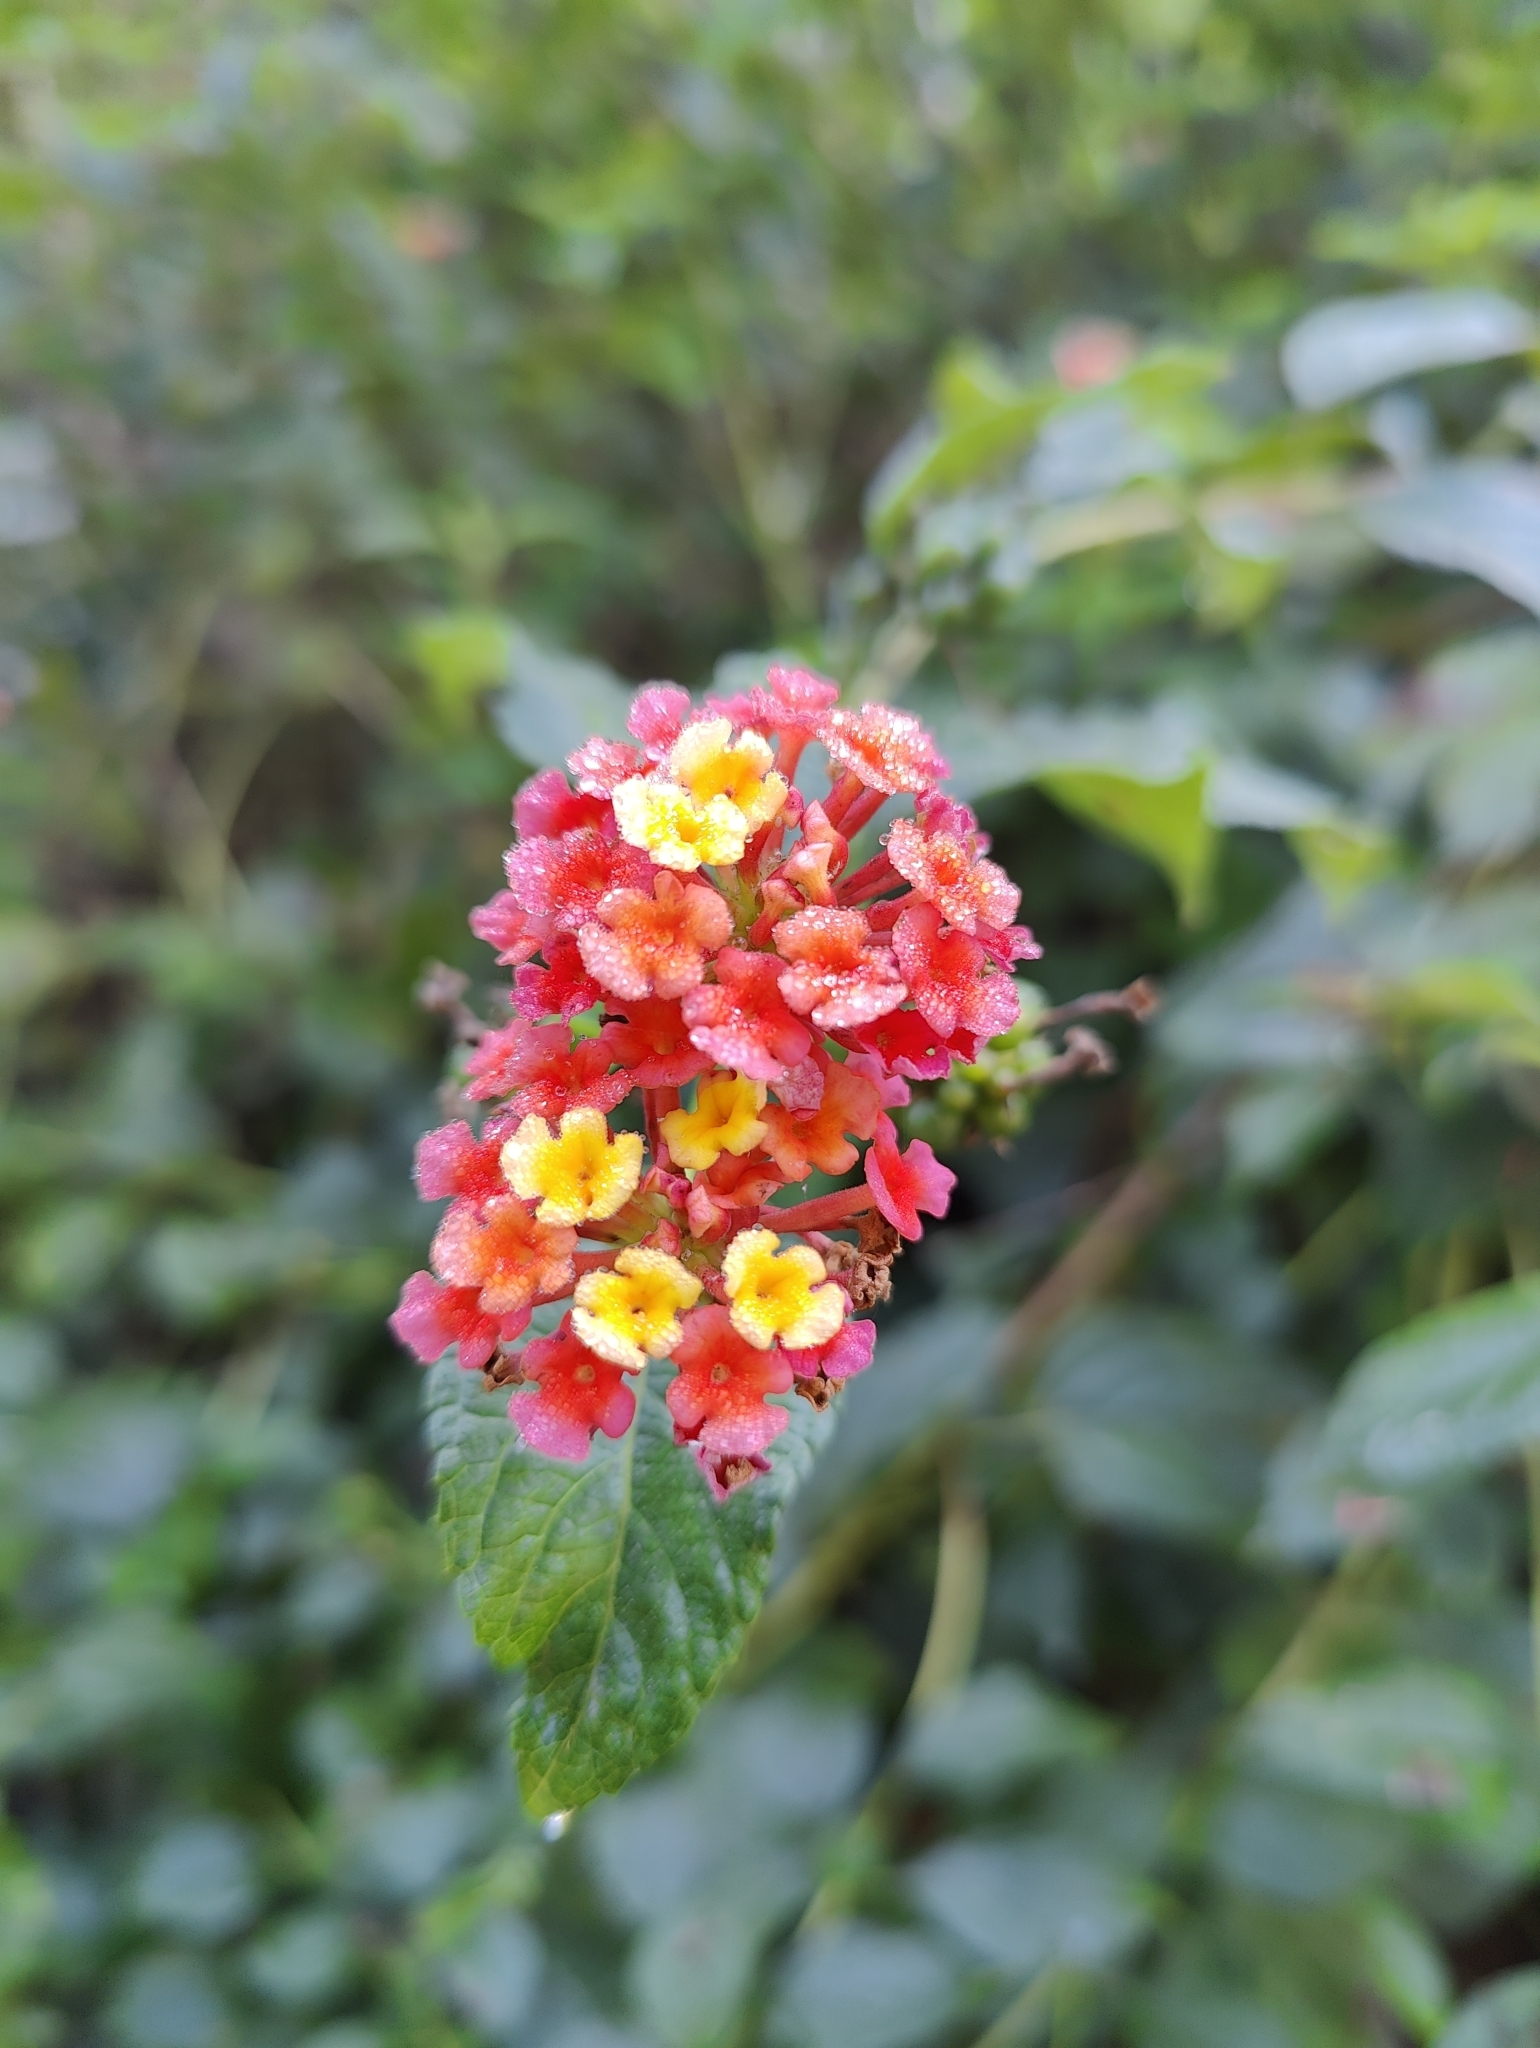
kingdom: Plantae
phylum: Tracheophyta
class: Magnoliopsida
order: Lamiales
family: Verbenaceae
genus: Lantana
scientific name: Lantana camara
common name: Lantana
